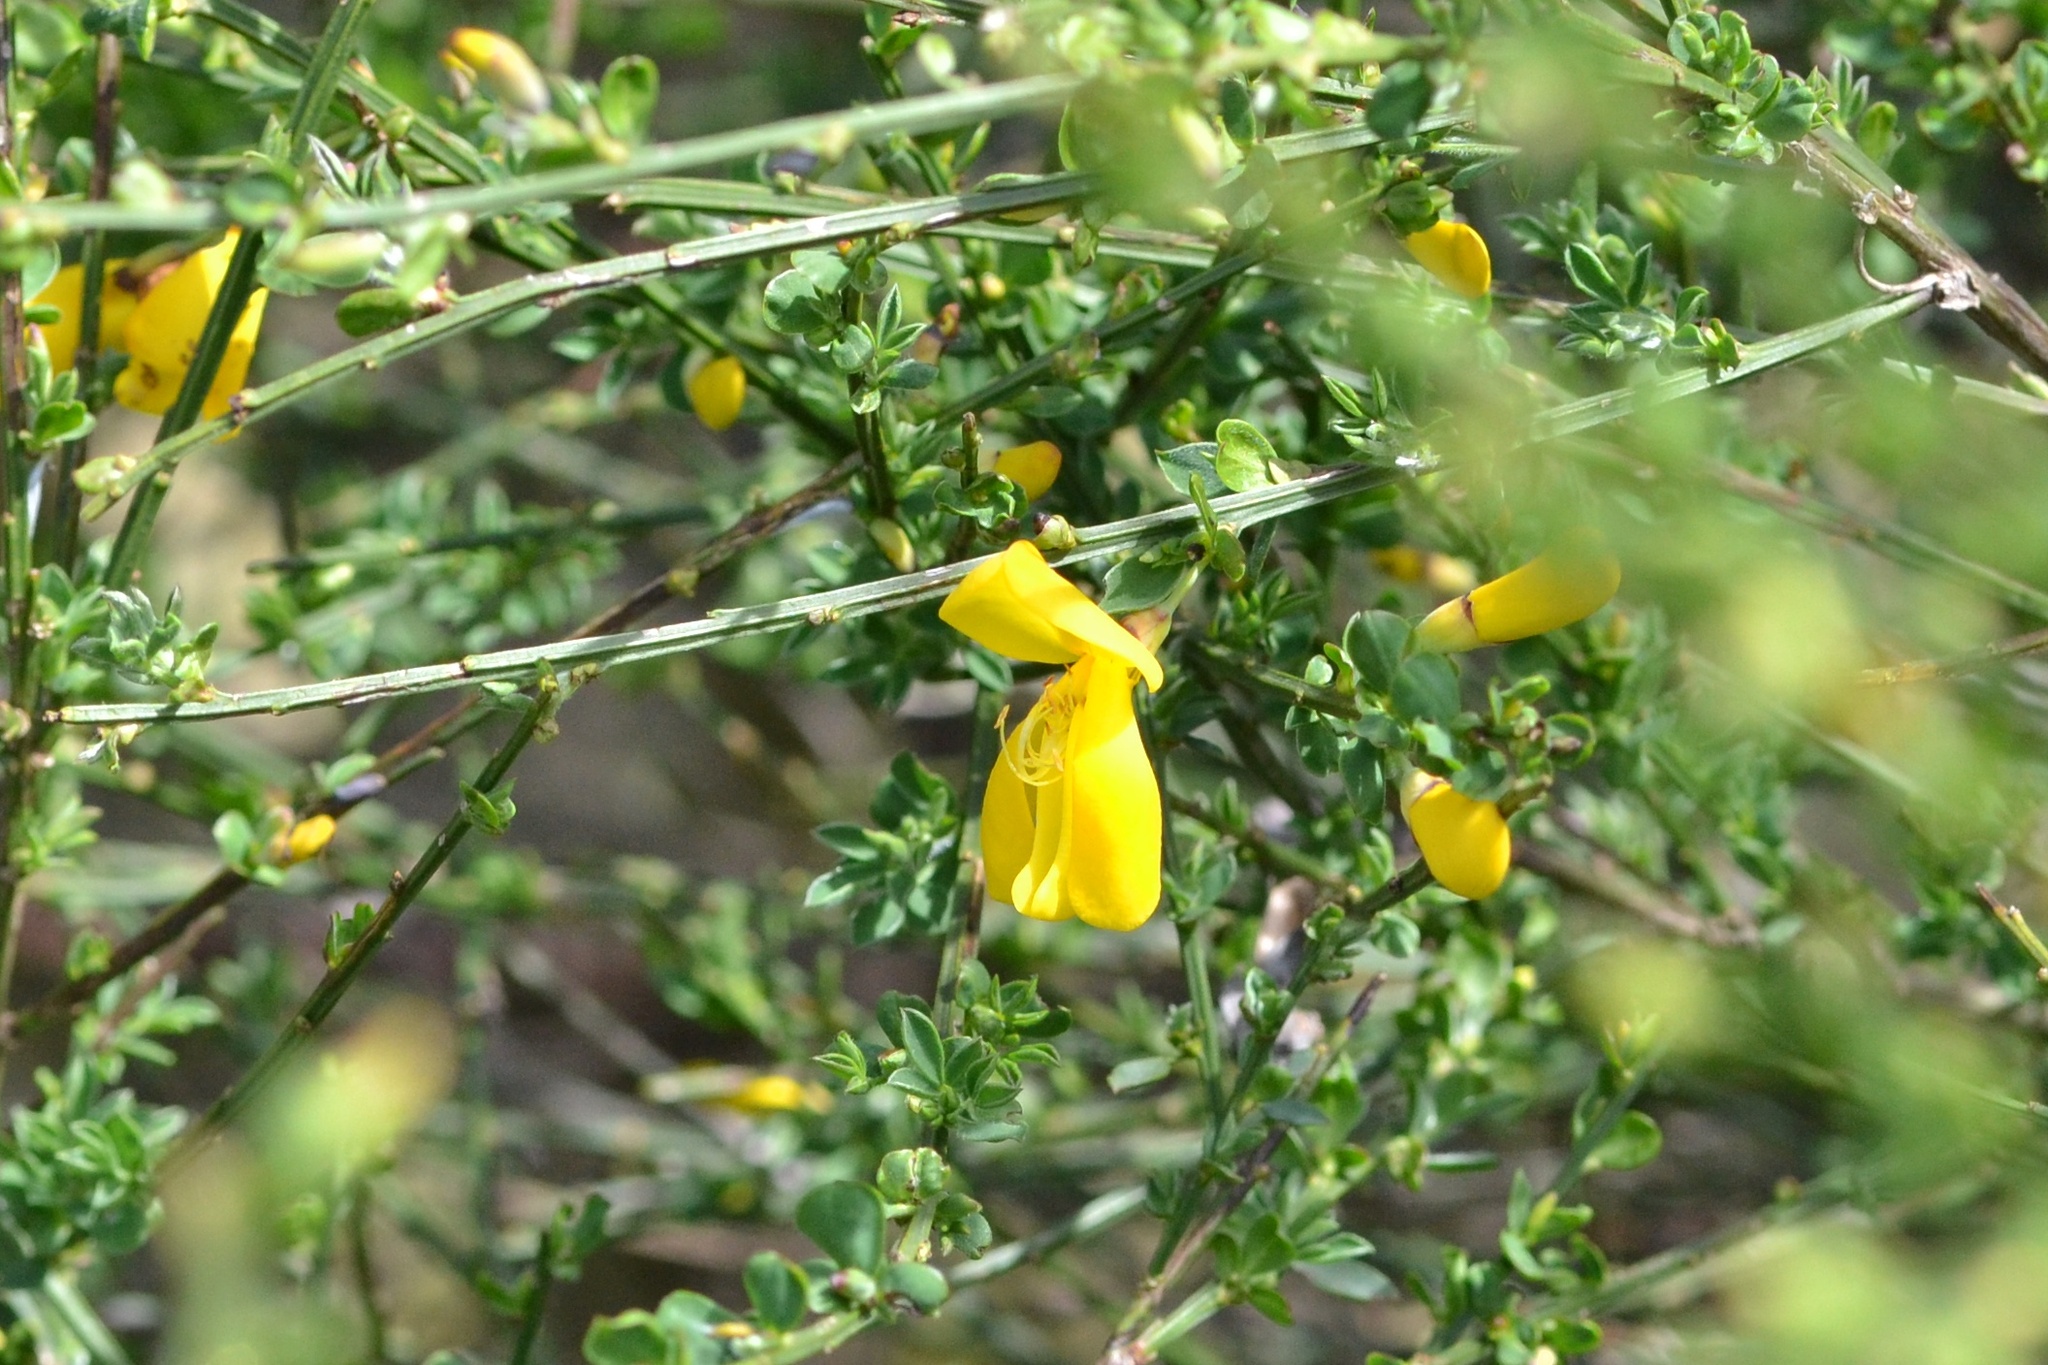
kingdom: Plantae
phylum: Tracheophyta
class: Magnoliopsida
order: Fabales
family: Fabaceae
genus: Cytisus
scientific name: Cytisus scoparius
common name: Scotch broom
